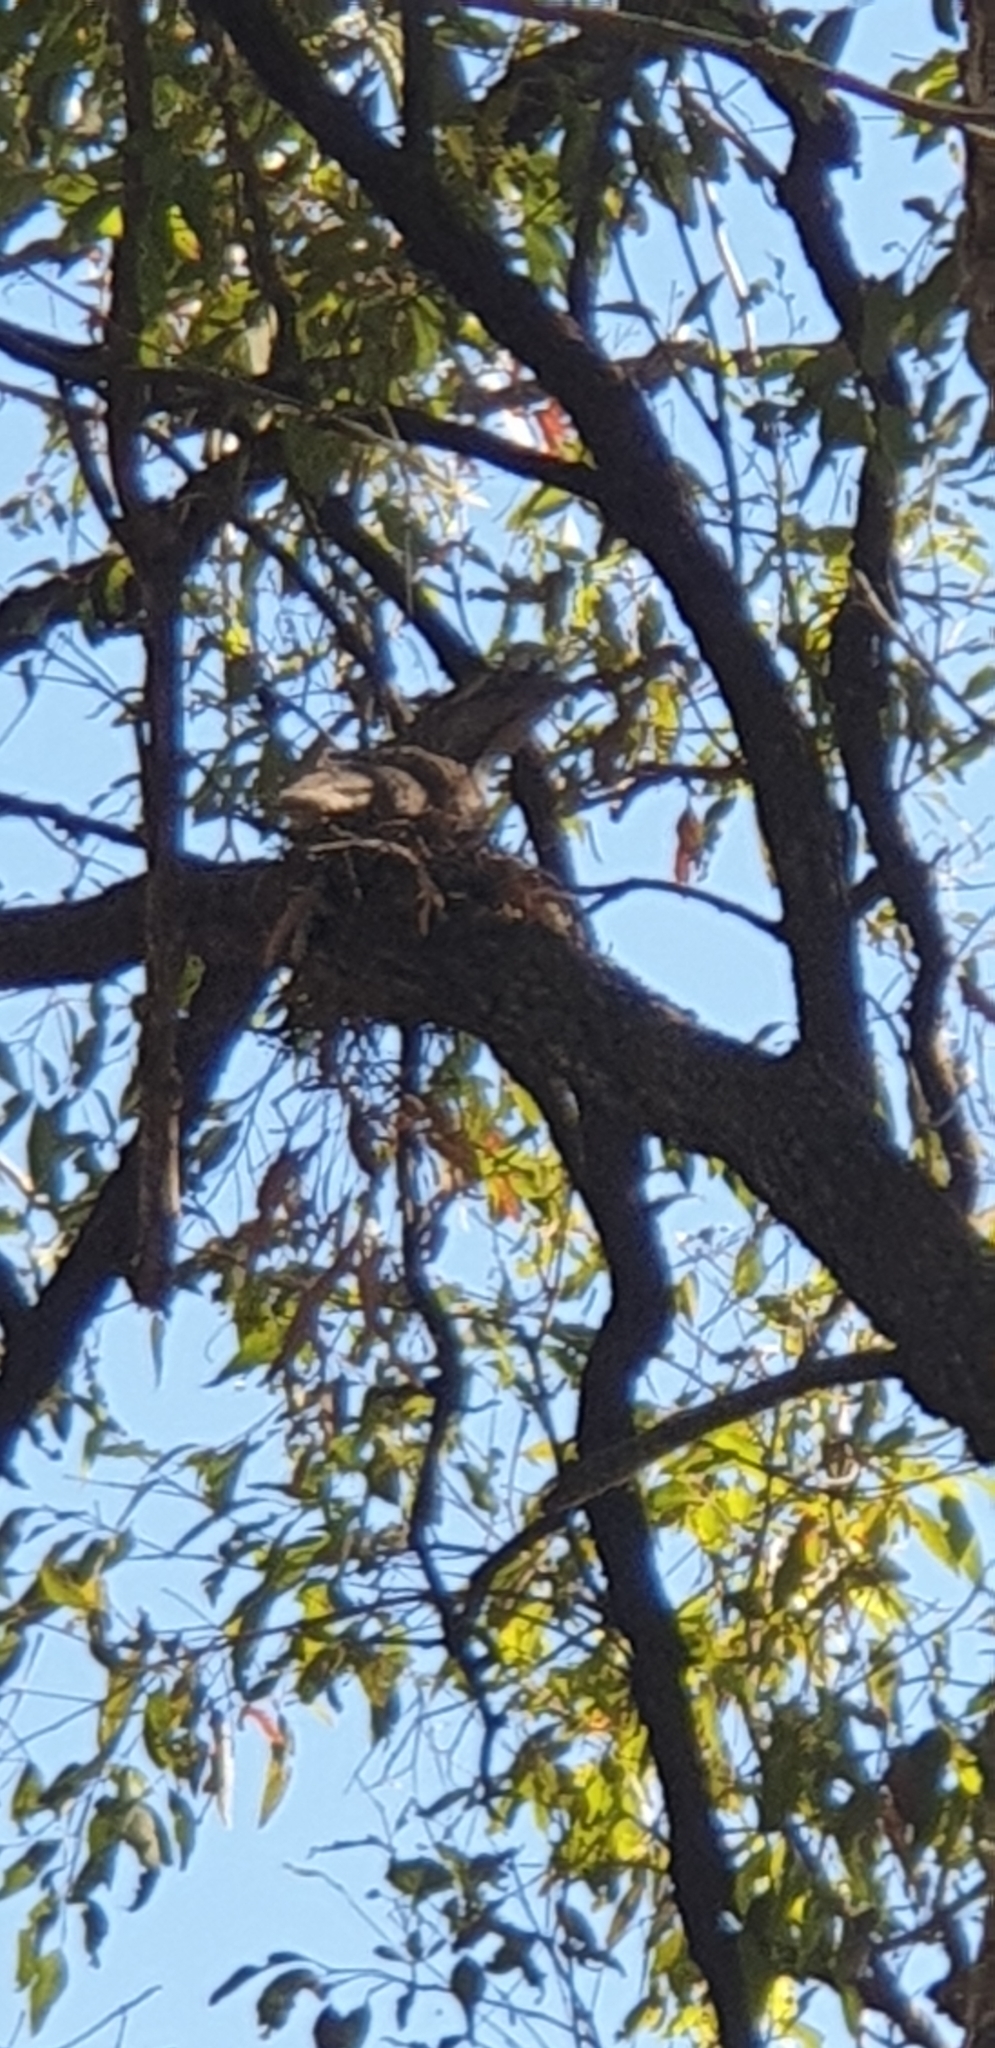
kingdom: Animalia
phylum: Chordata
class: Aves
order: Caprimulgiformes
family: Podargidae
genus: Podargus
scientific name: Podargus strigoides
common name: Tawny frogmouth
